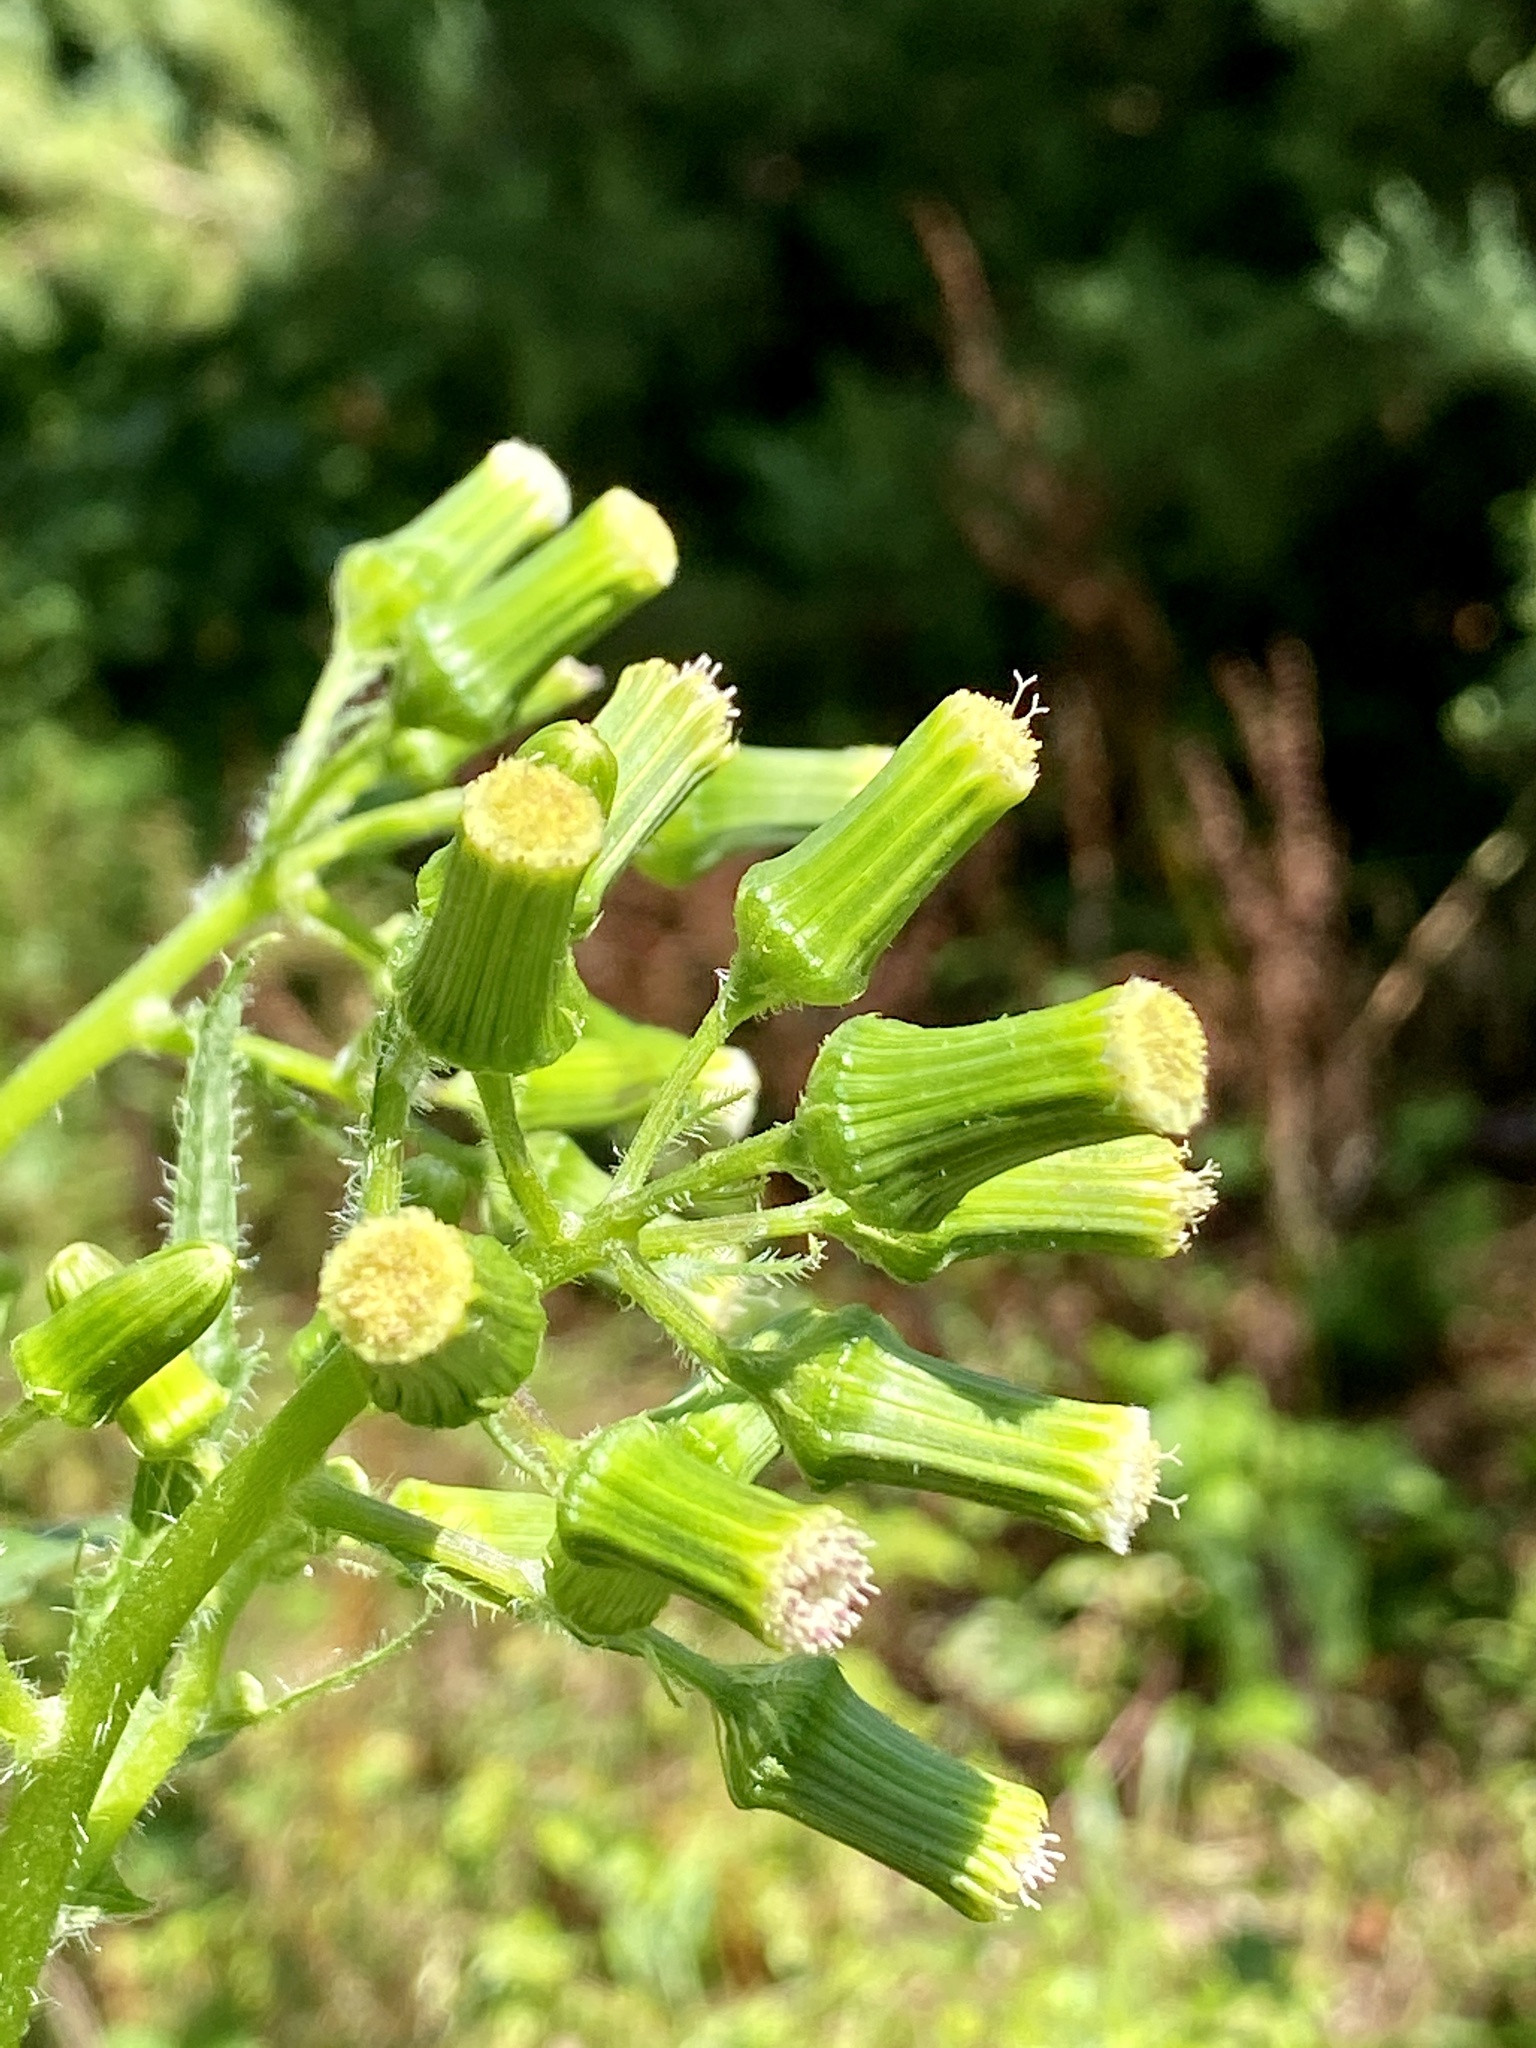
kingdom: Plantae
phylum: Tracheophyta
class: Magnoliopsida
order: Asterales
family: Asteraceae
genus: Erechtites
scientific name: Erechtites hieraciifolius
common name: American burnweed
